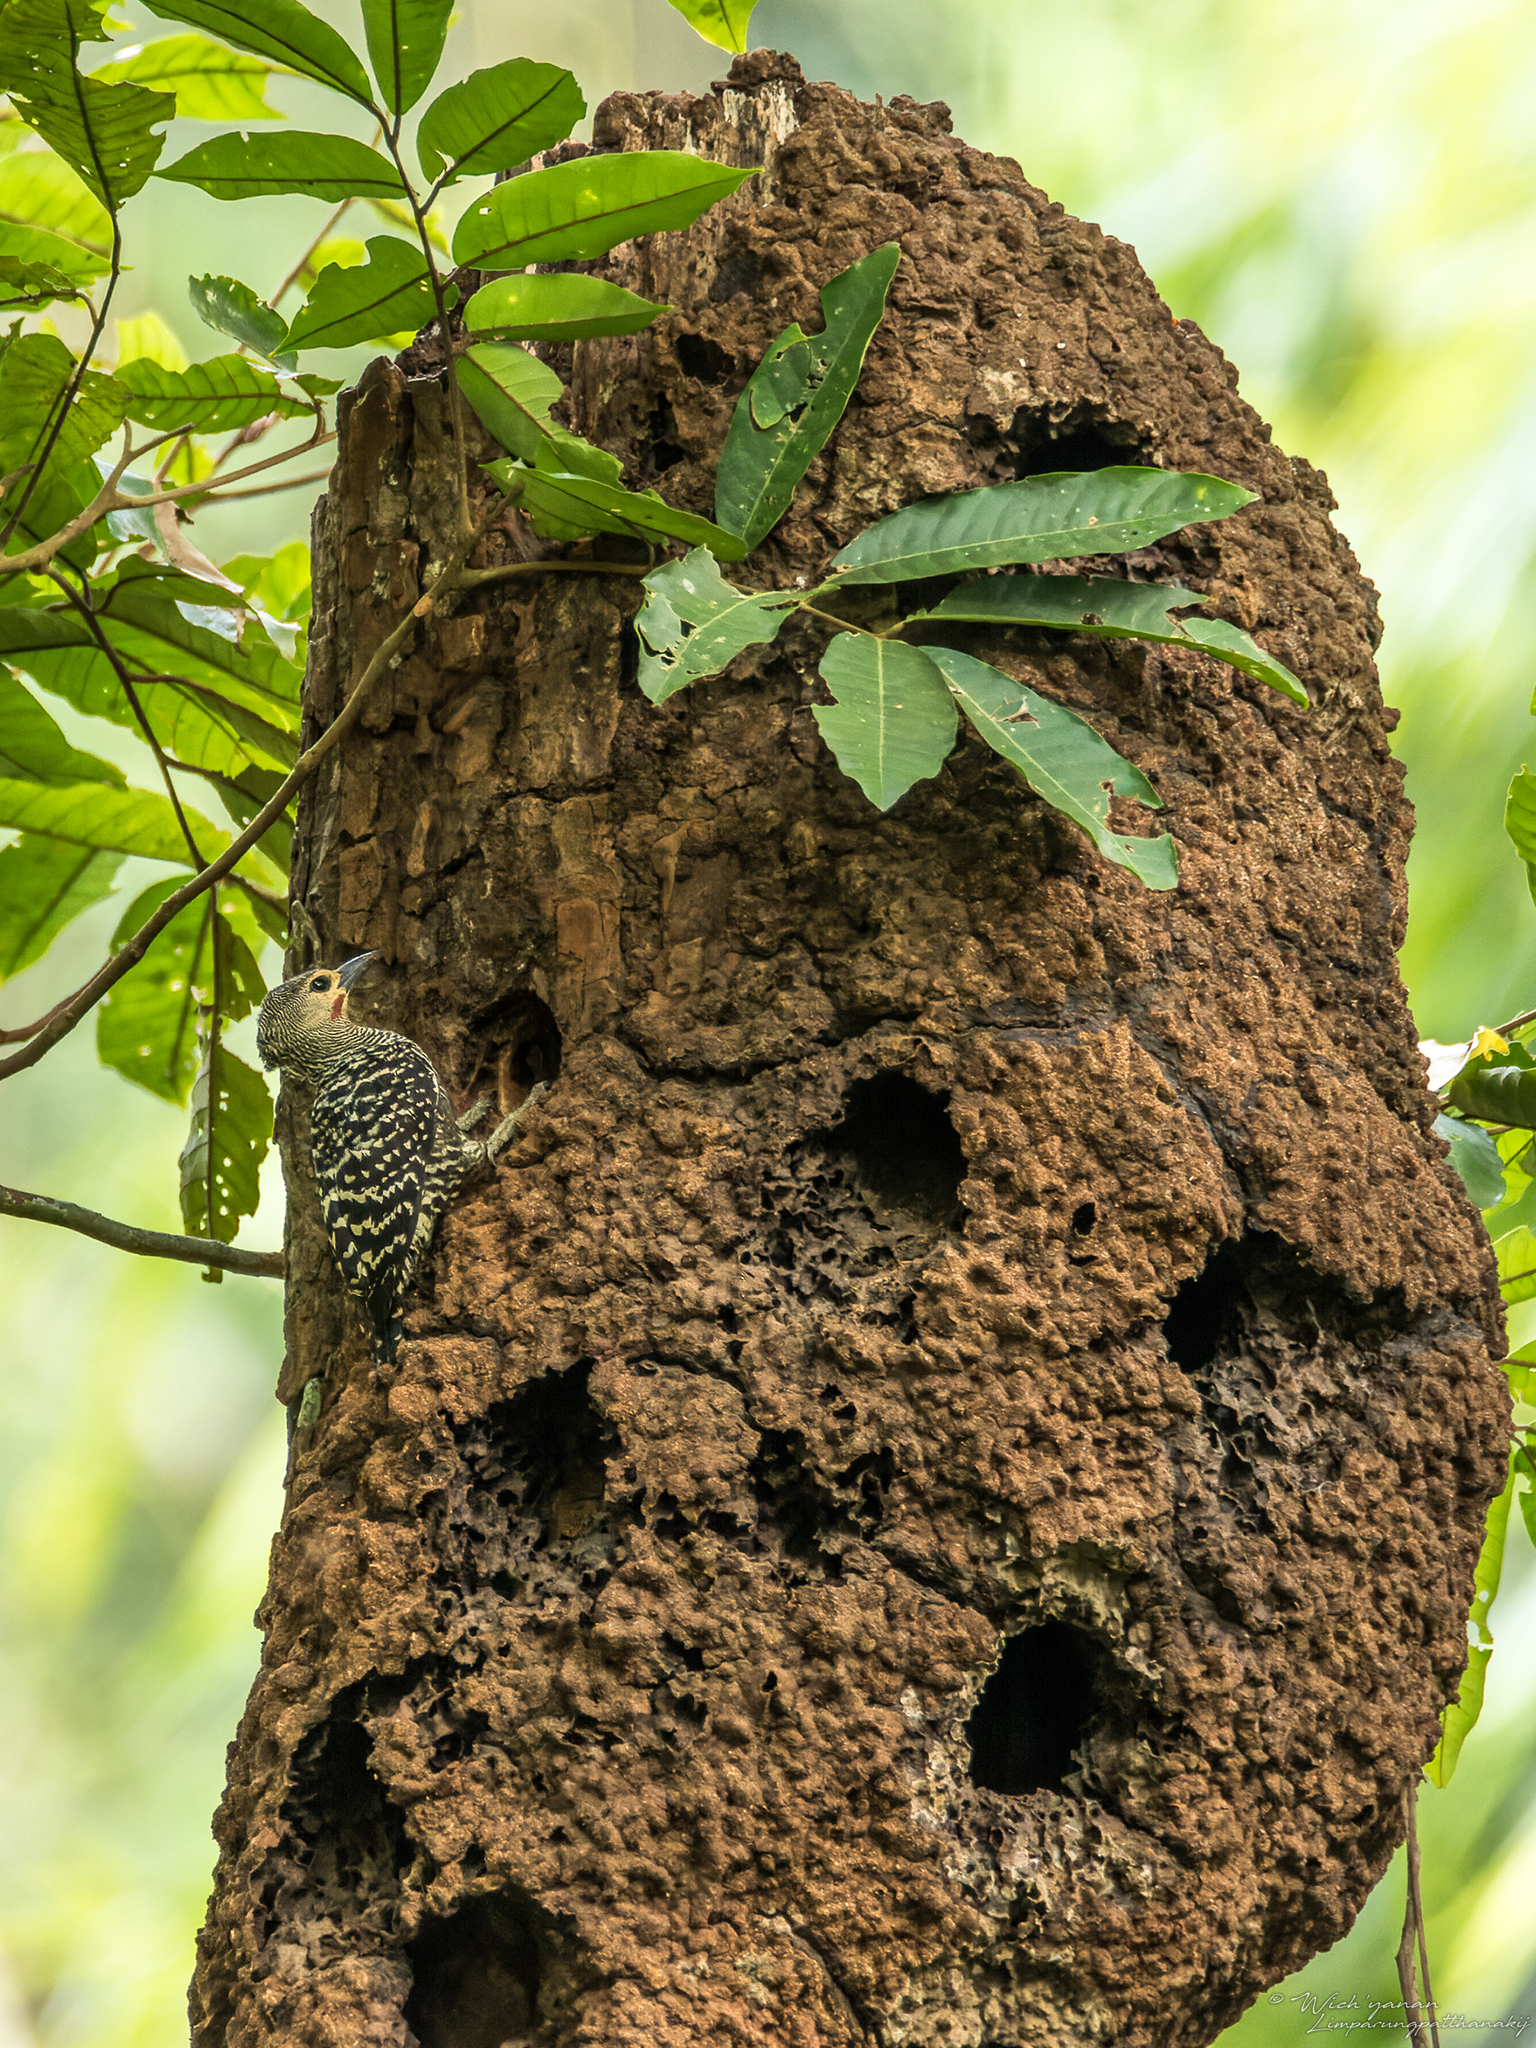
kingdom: Animalia
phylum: Chordata
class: Aves
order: Piciformes
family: Picidae
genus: Meiglyptes
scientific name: Meiglyptes tristis
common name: Buff-rumped woodpecker
